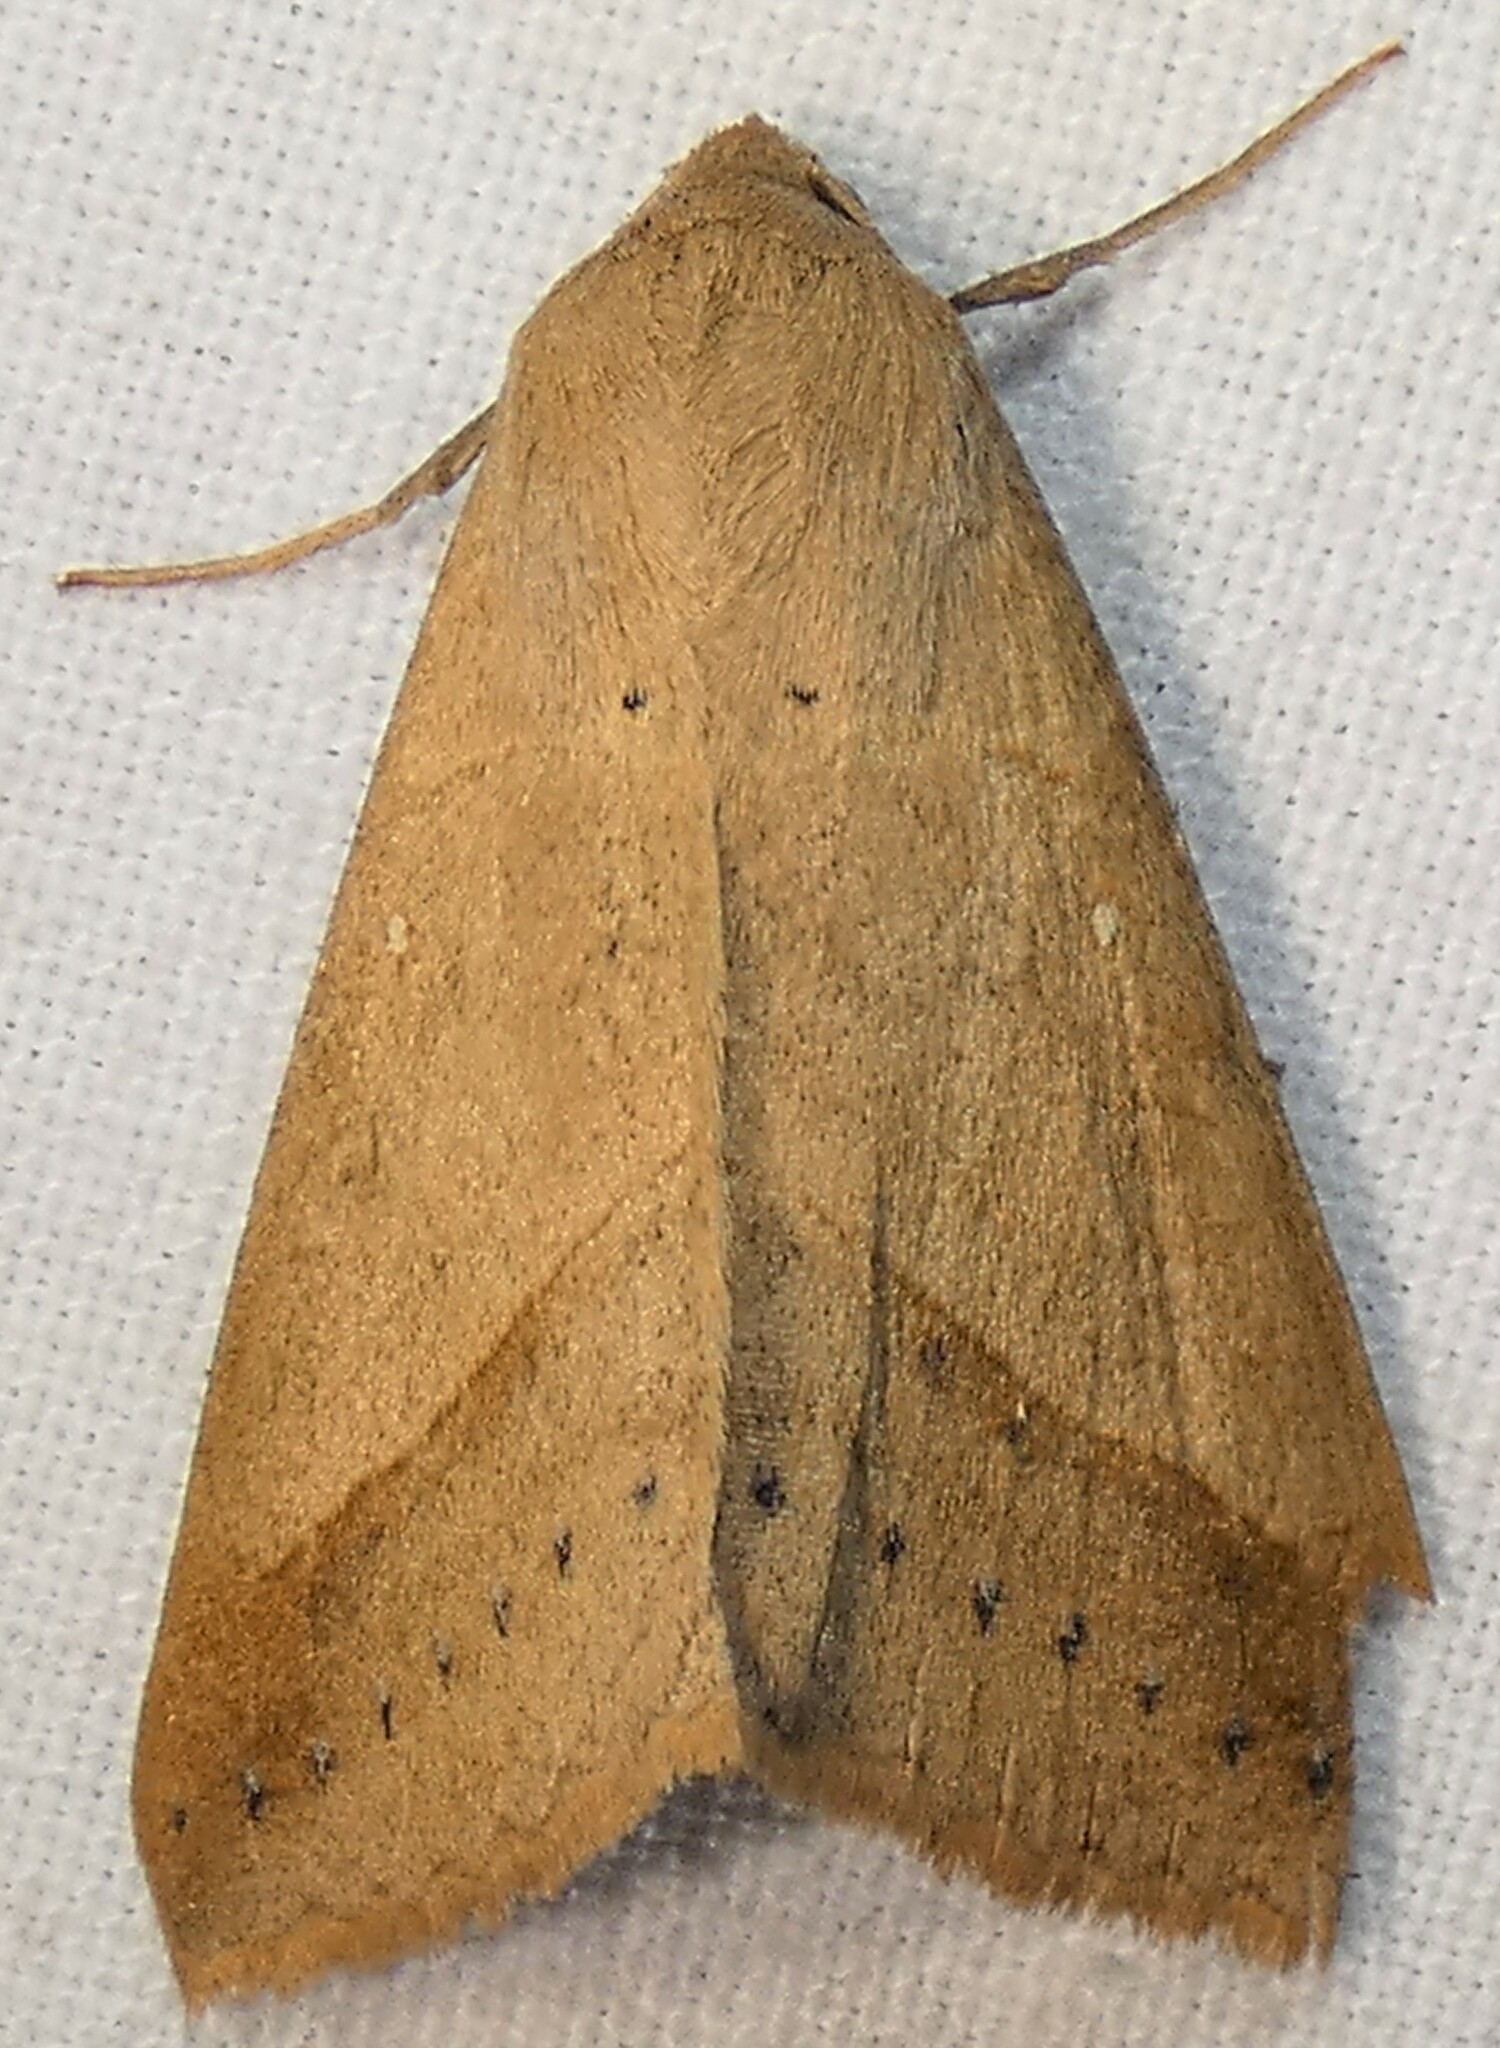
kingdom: Animalia
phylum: Arthropoda
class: Insecta
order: Lepidoptera
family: Erebidae
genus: Mocis
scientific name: Mocis disseverans
